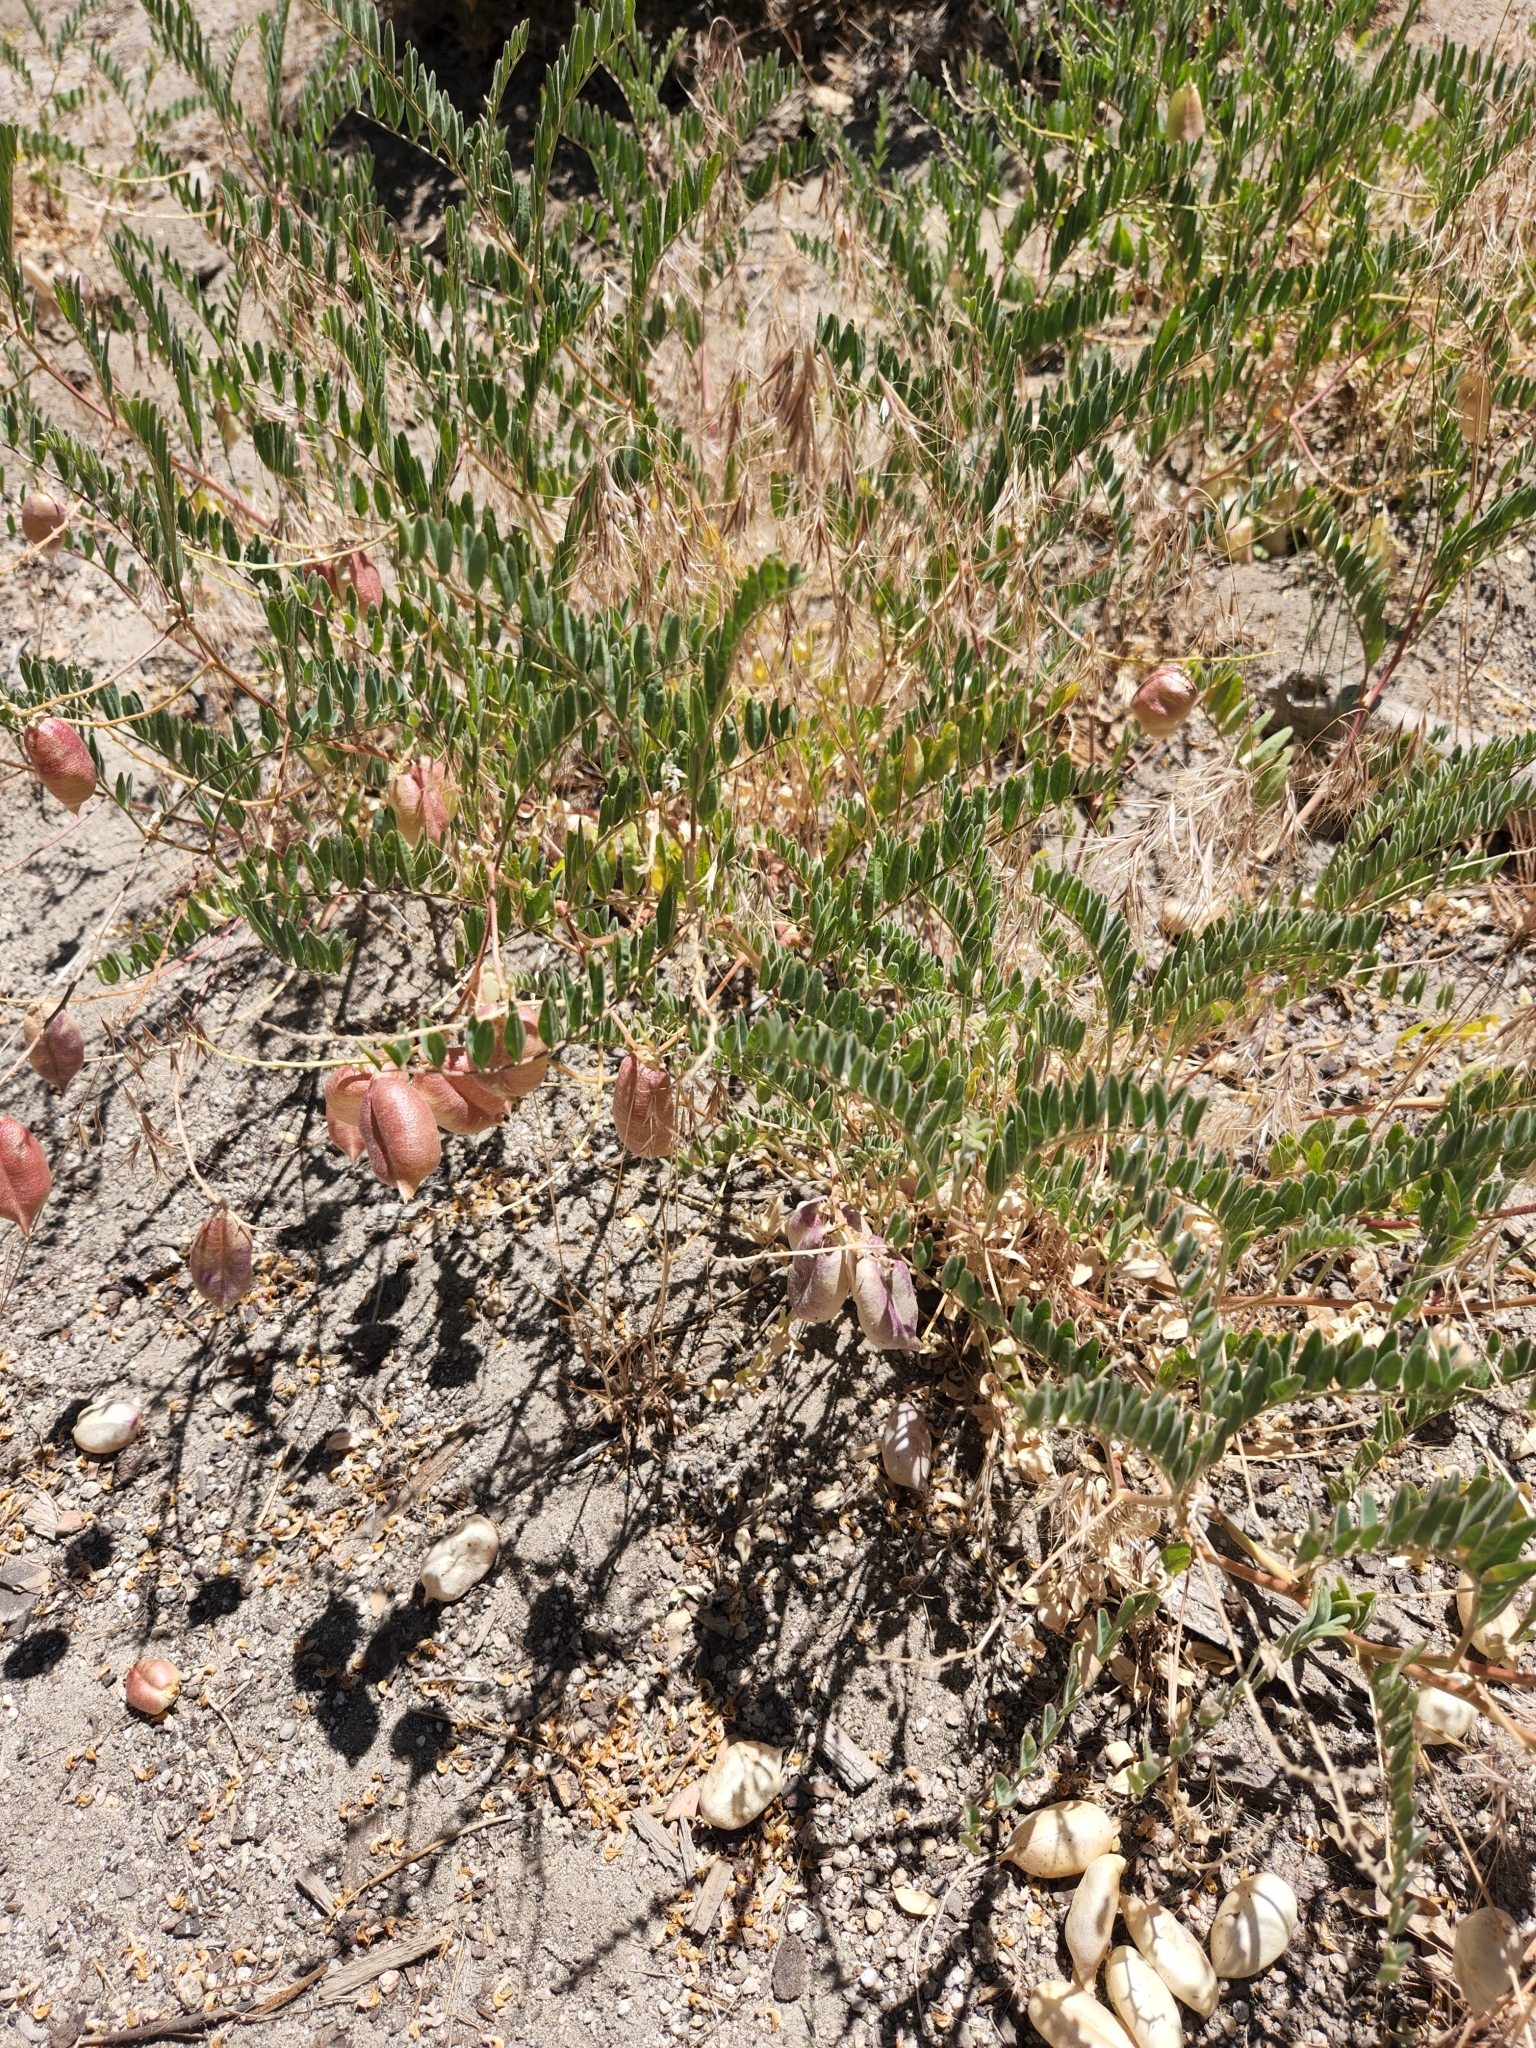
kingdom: Plantae
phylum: Tracheophyta
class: Magnoliopsida
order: Fabales
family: Fabaceae
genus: Astragalus
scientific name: Astragalus douglasii
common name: Jacumba milkvetch
